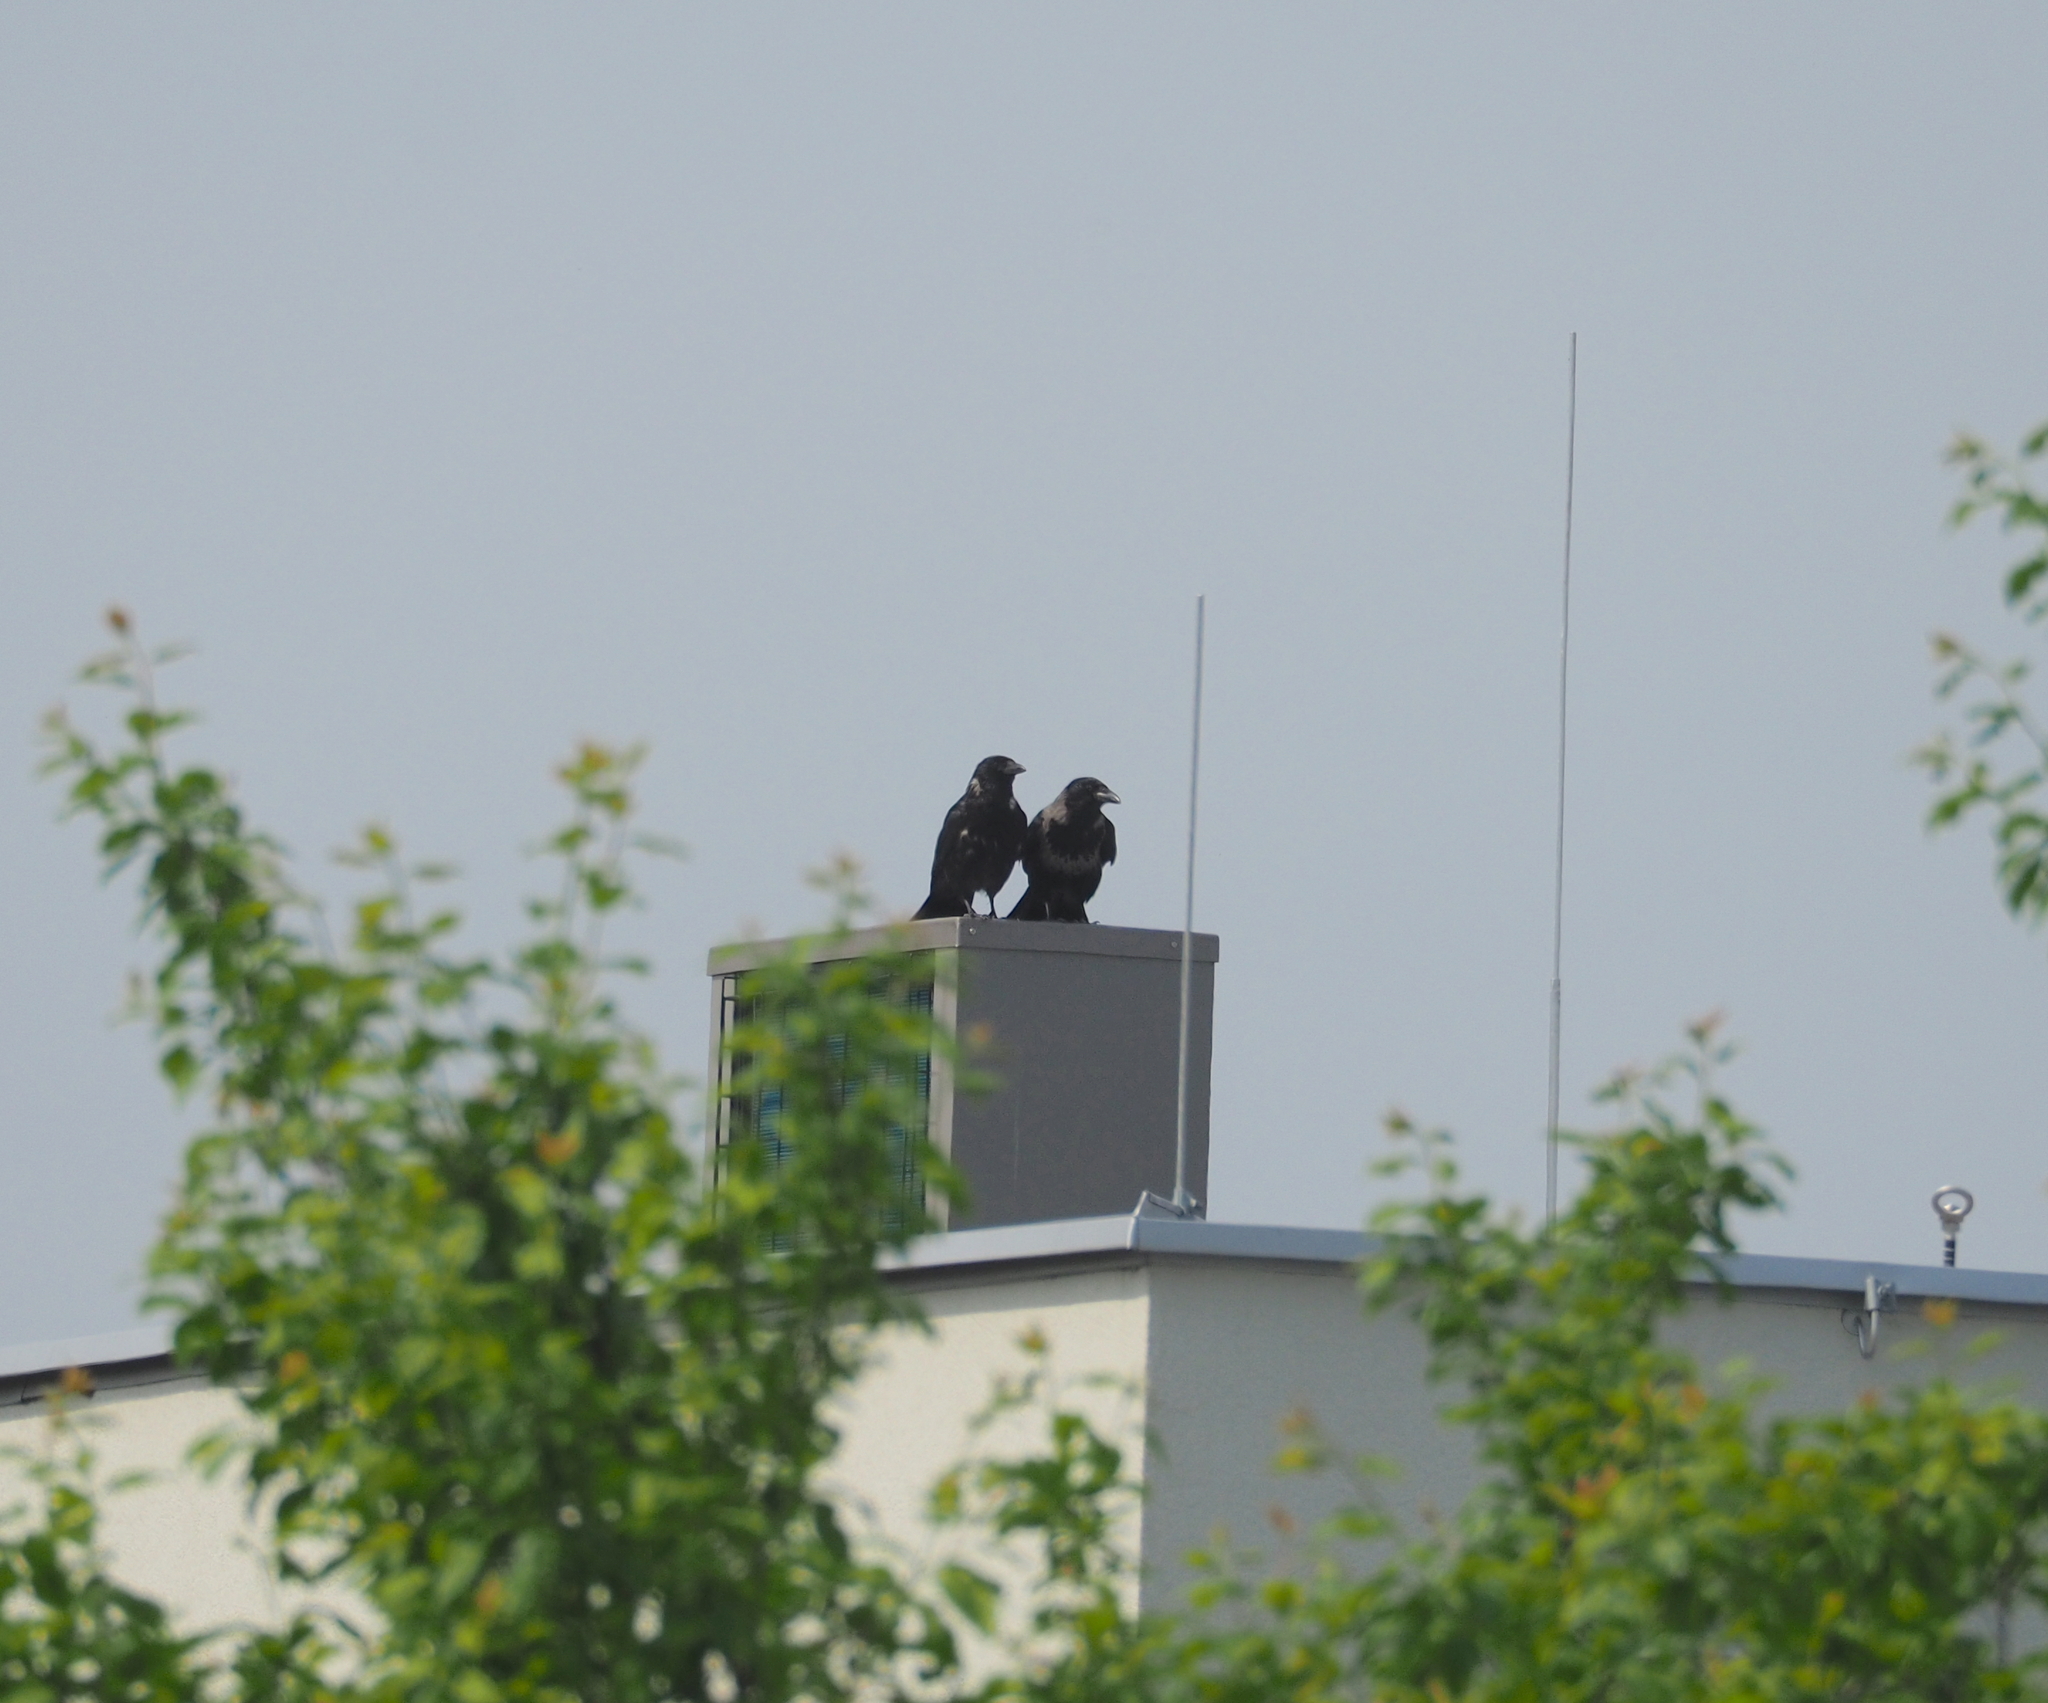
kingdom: Animalia
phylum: Chordata
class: Aves
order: Passeriformes
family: Corvidae
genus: Corvus
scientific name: Corvus
